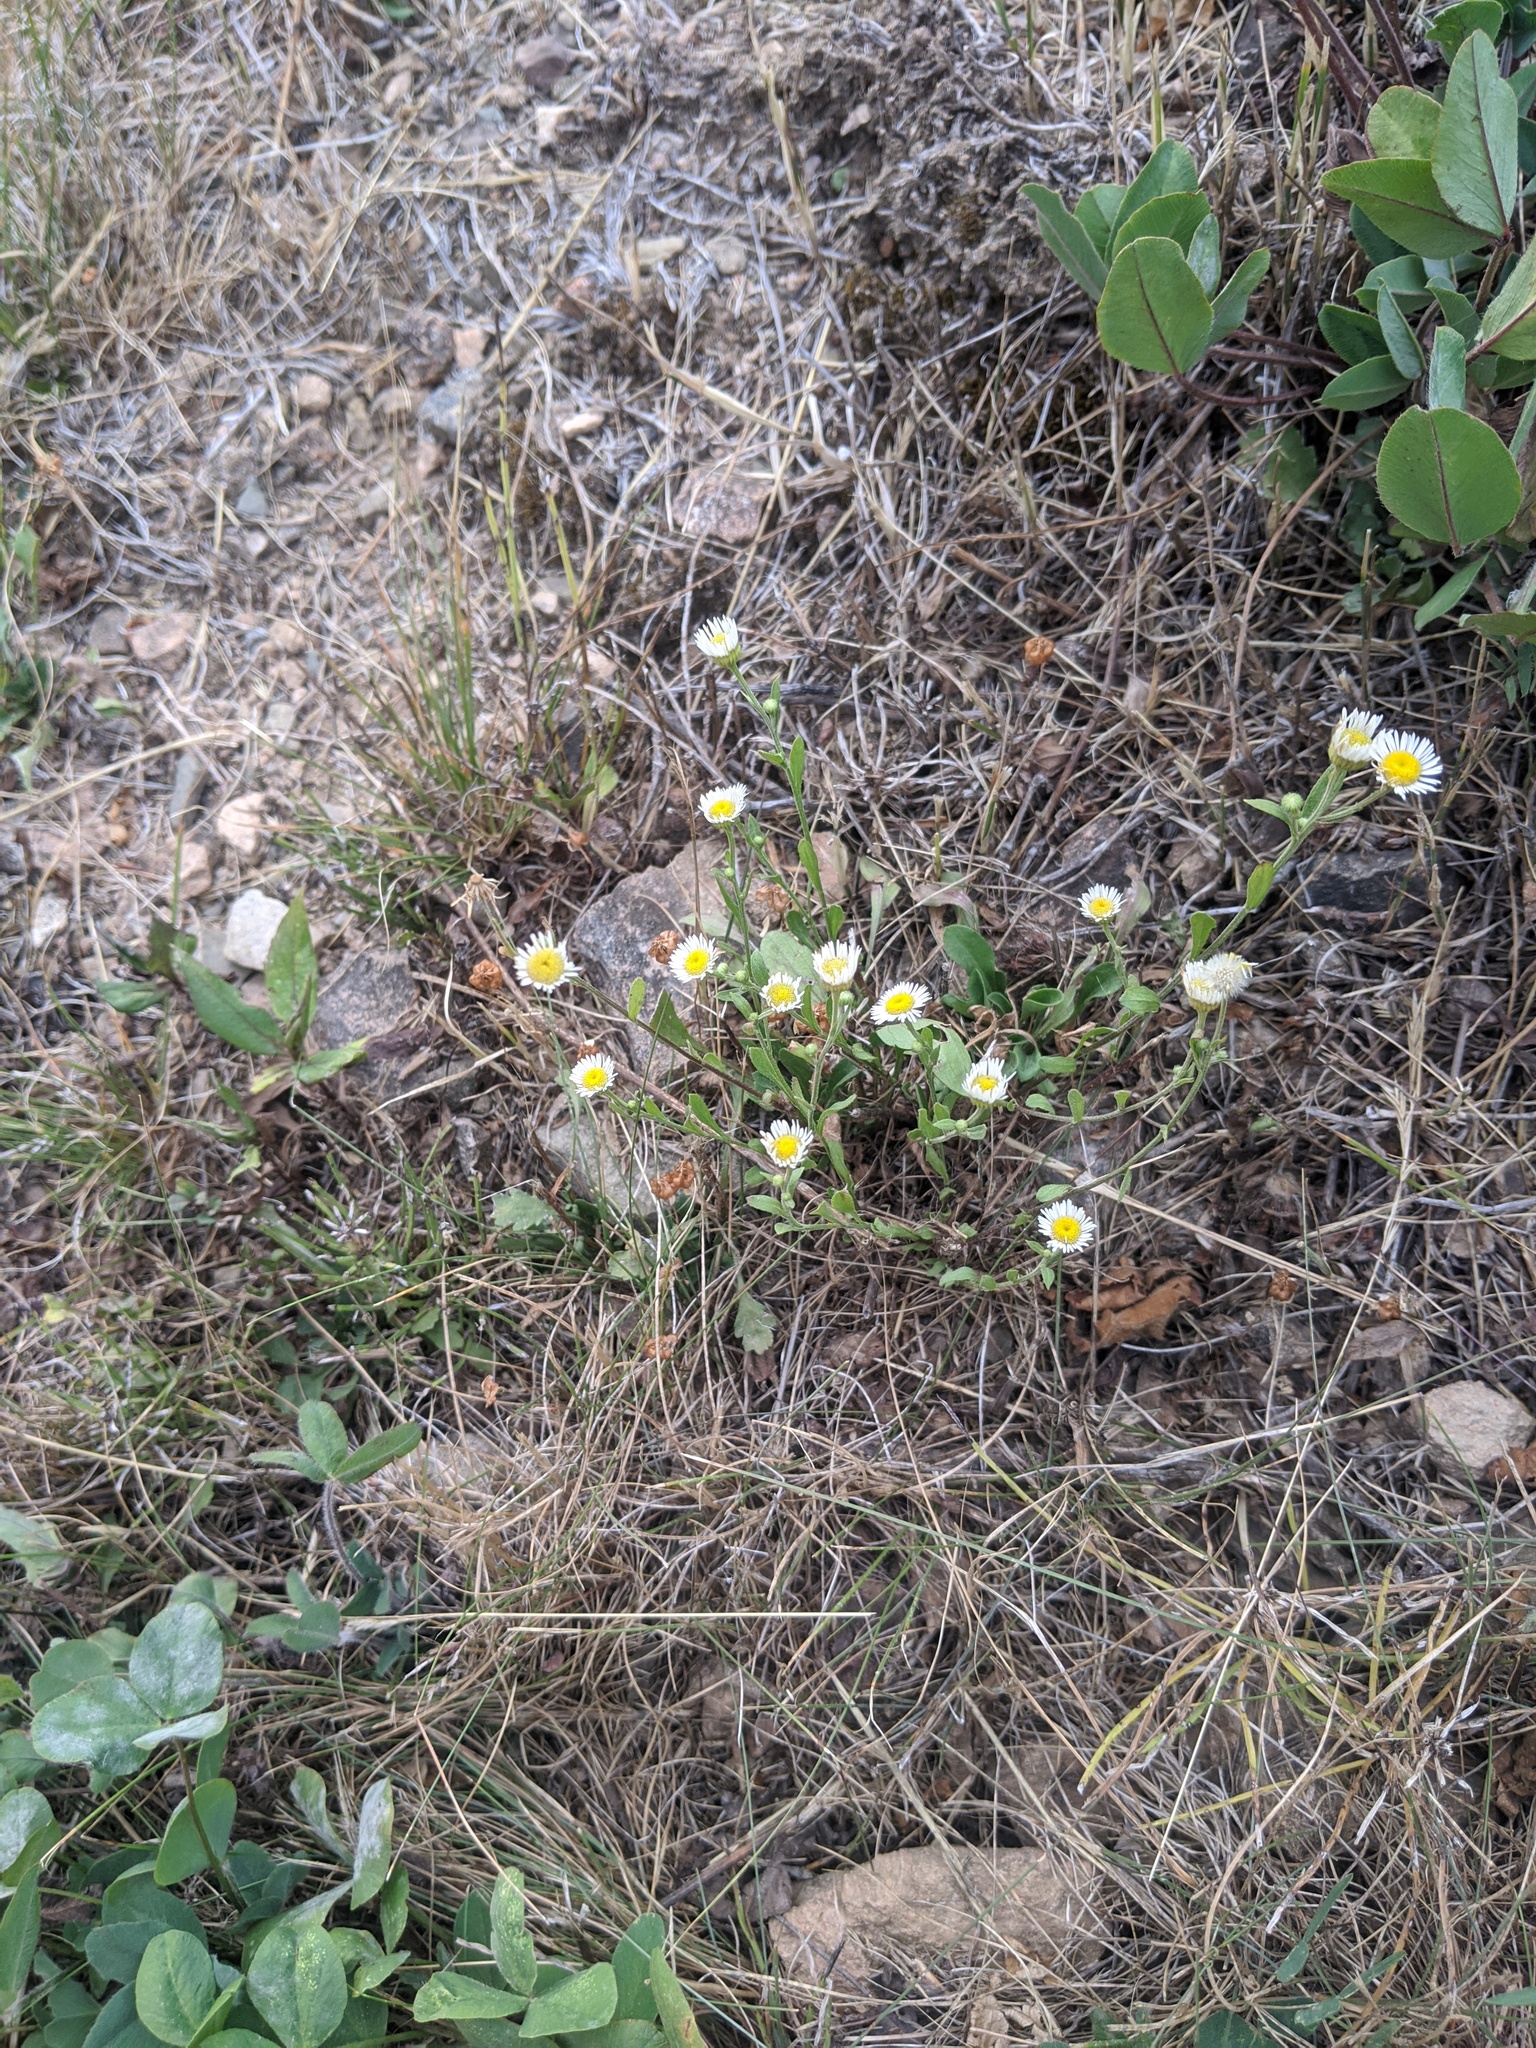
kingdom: Plantae
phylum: Tracheophyta
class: Magnoliopsida
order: Asterales
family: Asteraceae
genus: Erigeron
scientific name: Erigeron strigosus
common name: Common eastern fleabane
